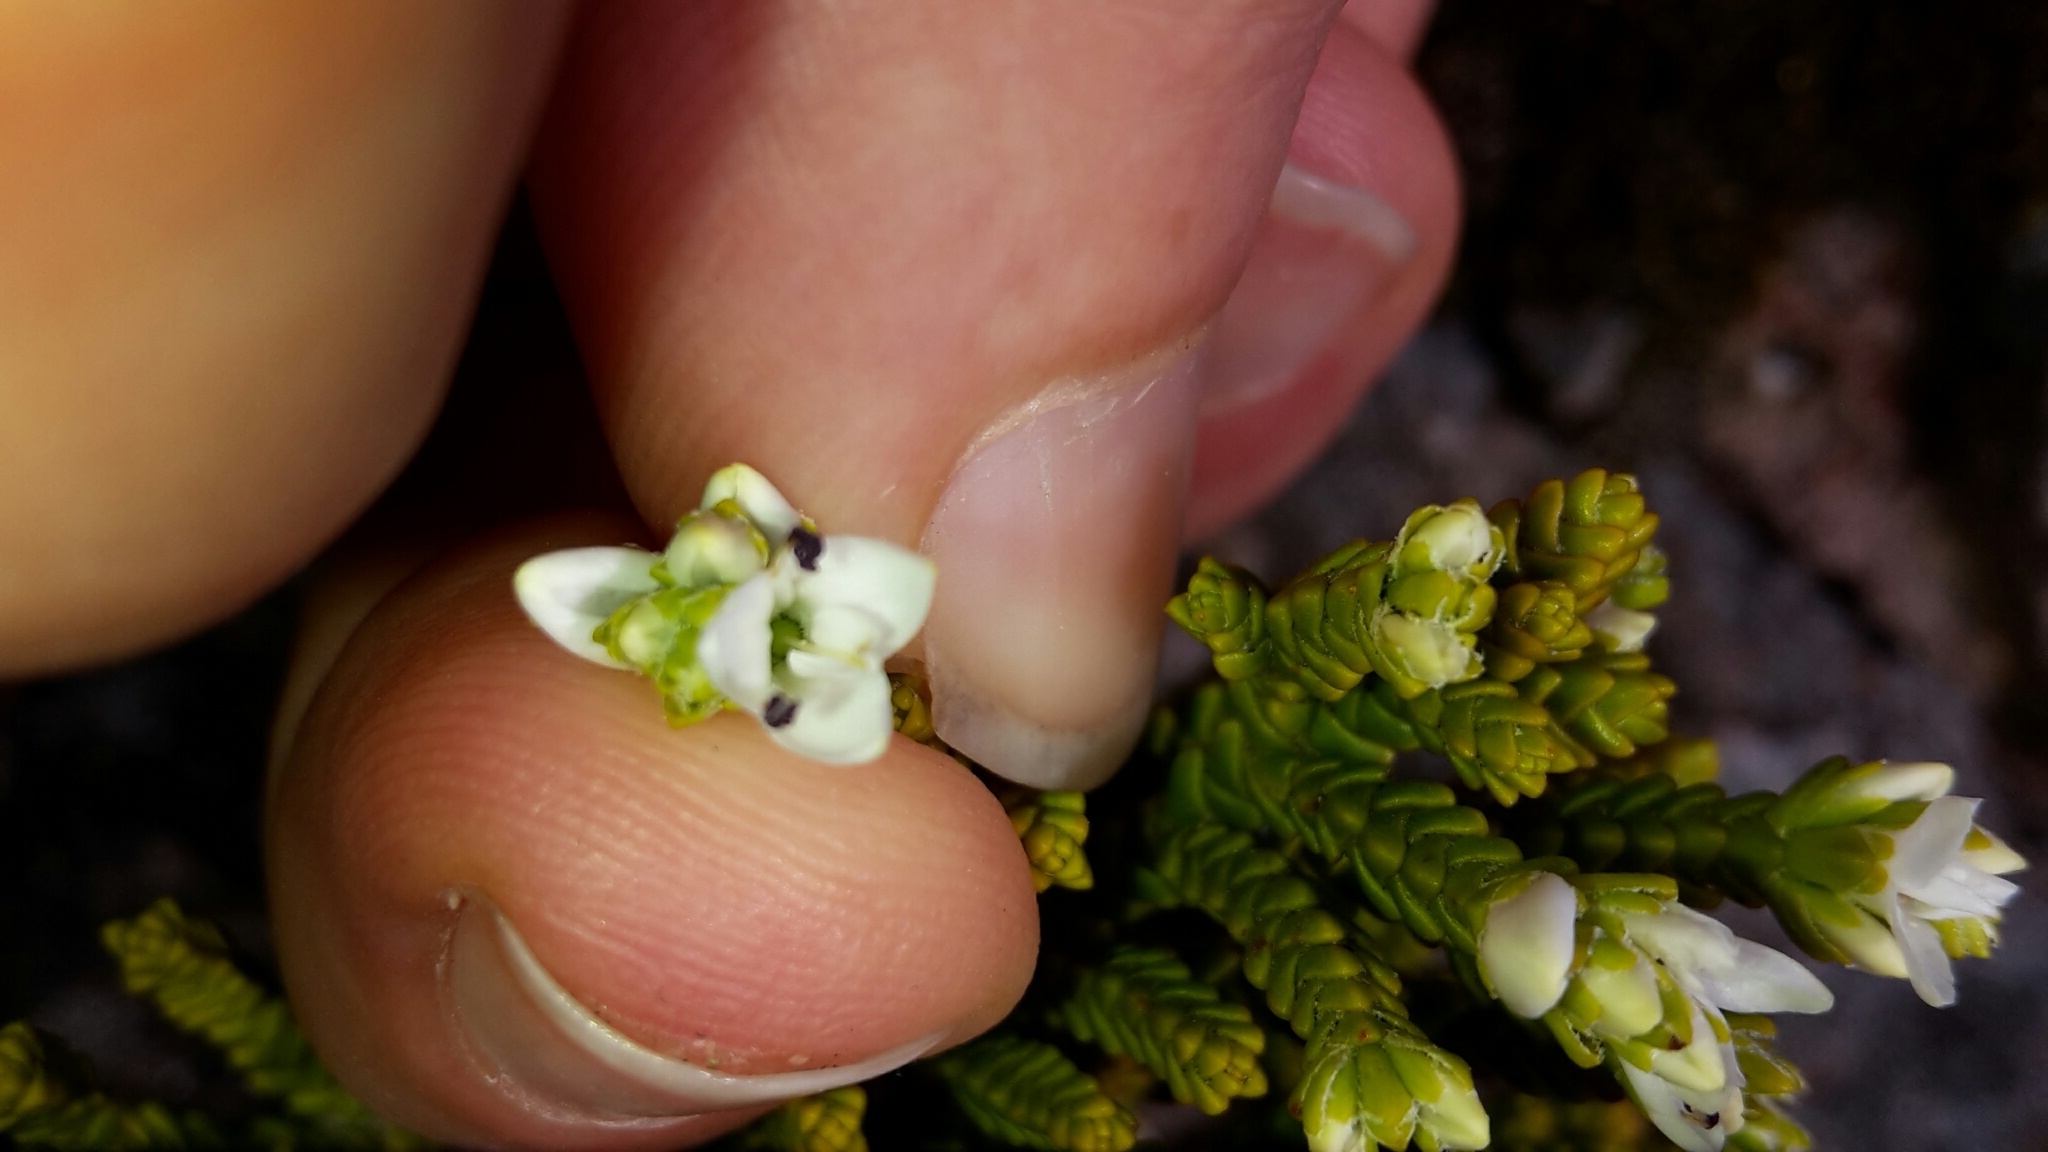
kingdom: Plantae
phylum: Tracheophyta
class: Magnoliopsida
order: Lamiales
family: Plantaginaceae
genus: Veronica
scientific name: Veronica tetragona
